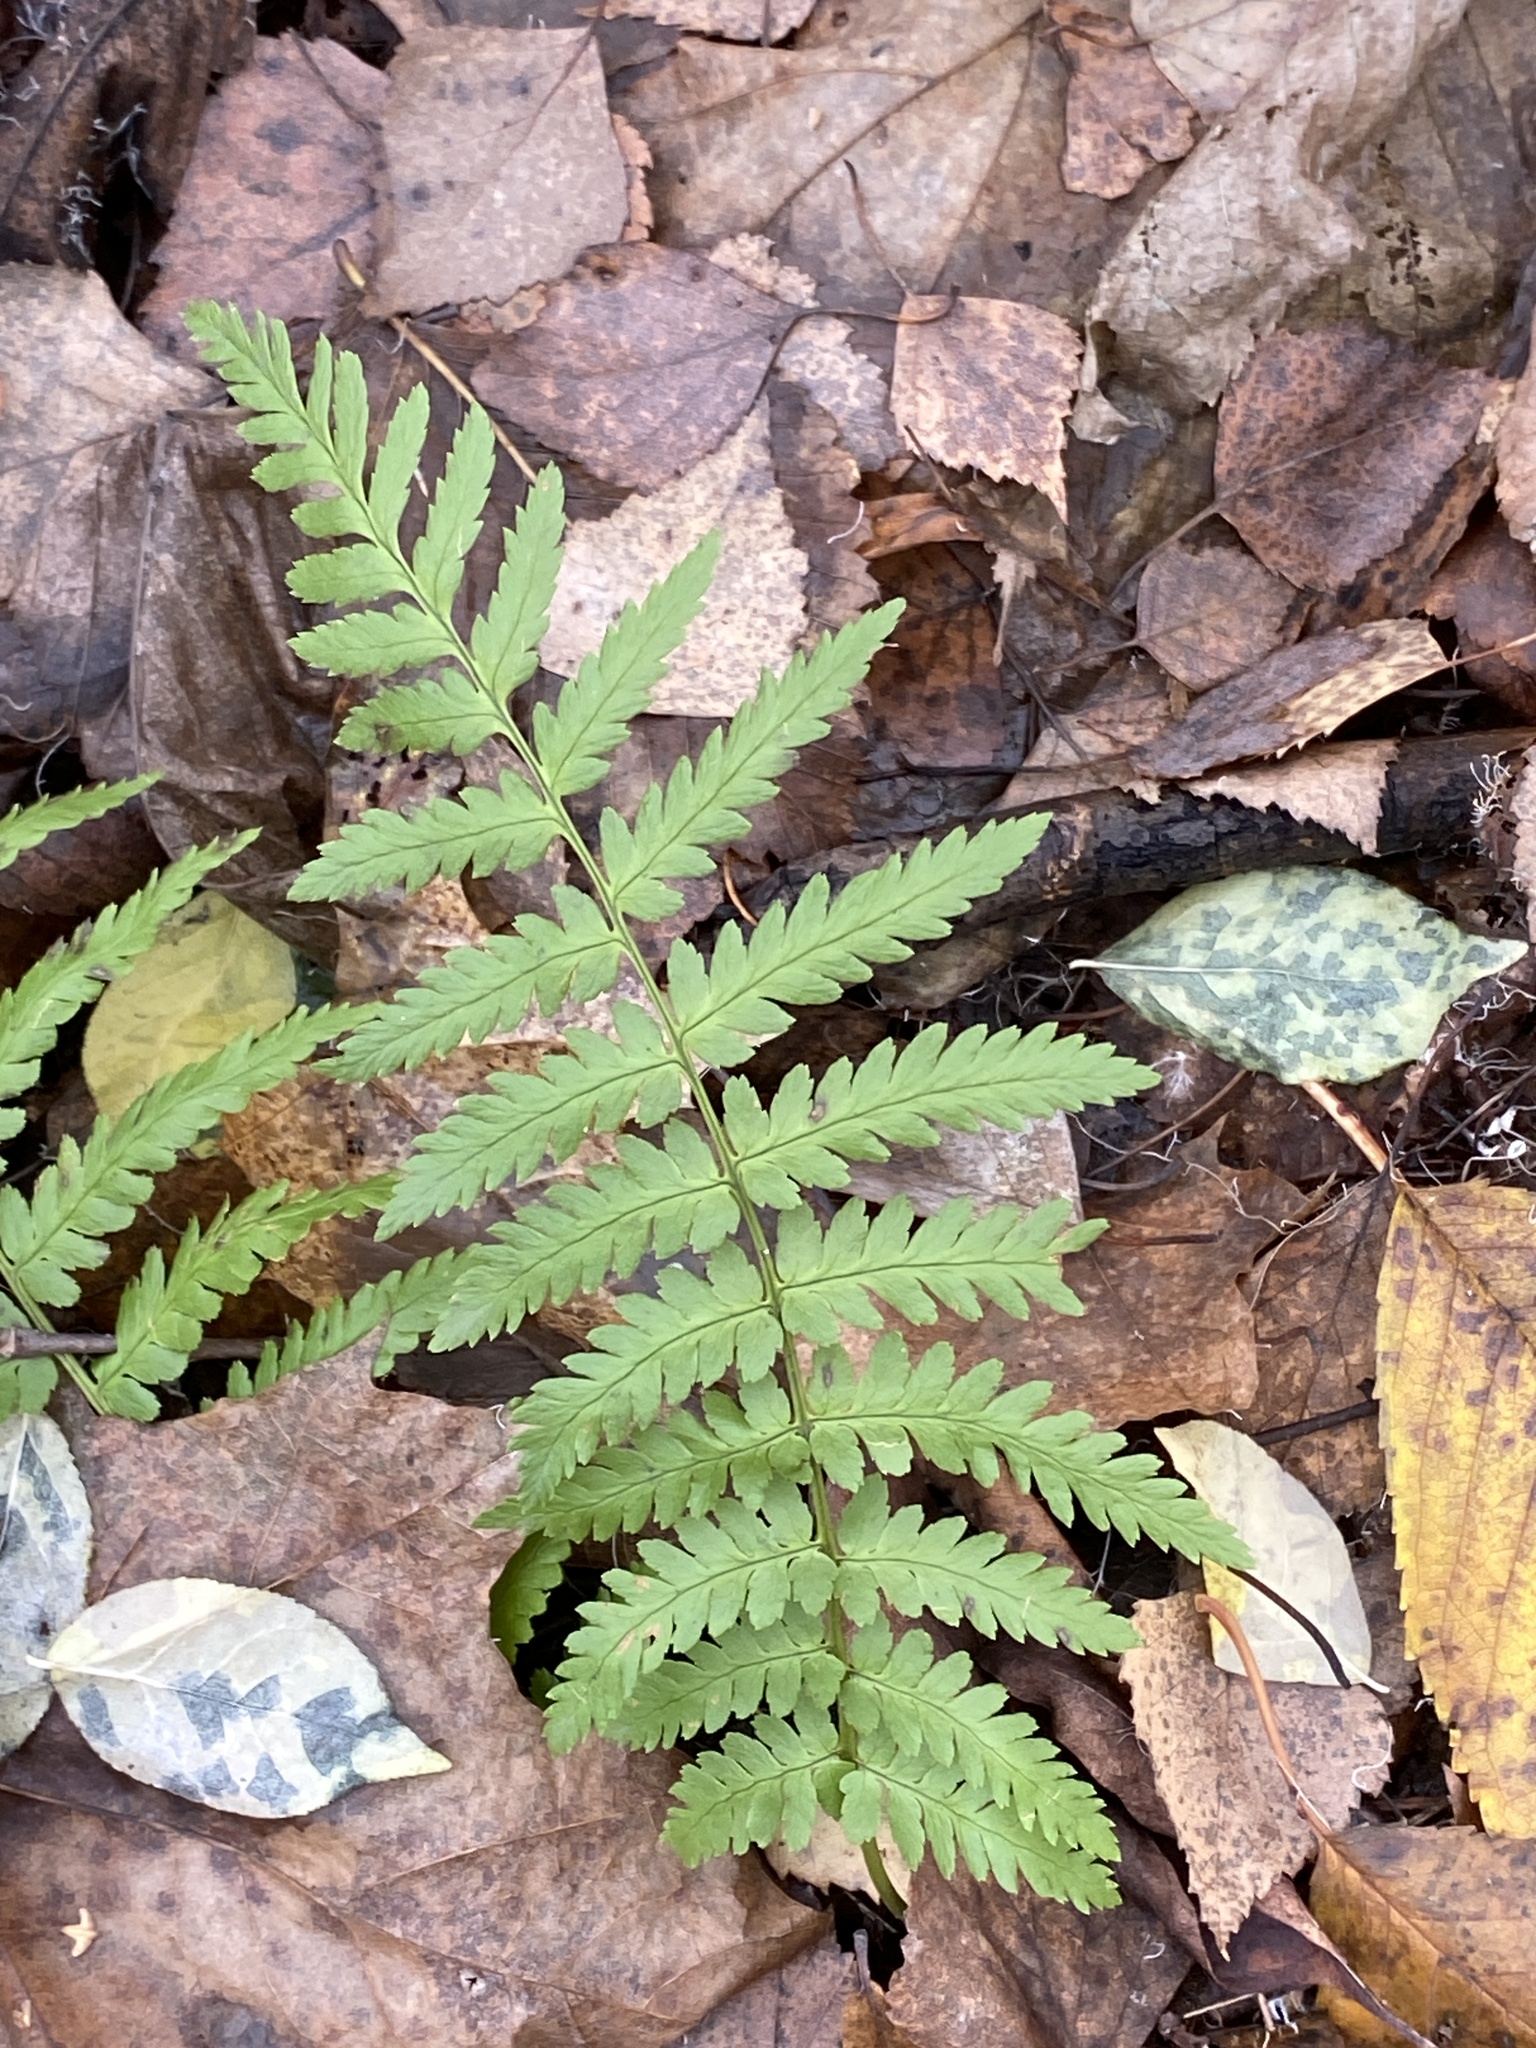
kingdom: Plantae
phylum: Tracheophyta
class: Polypodiopsida
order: Polypodiales
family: Dryopteridaceae
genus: Dryopteris
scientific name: Dryopteris filix-mas
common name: Male fern
